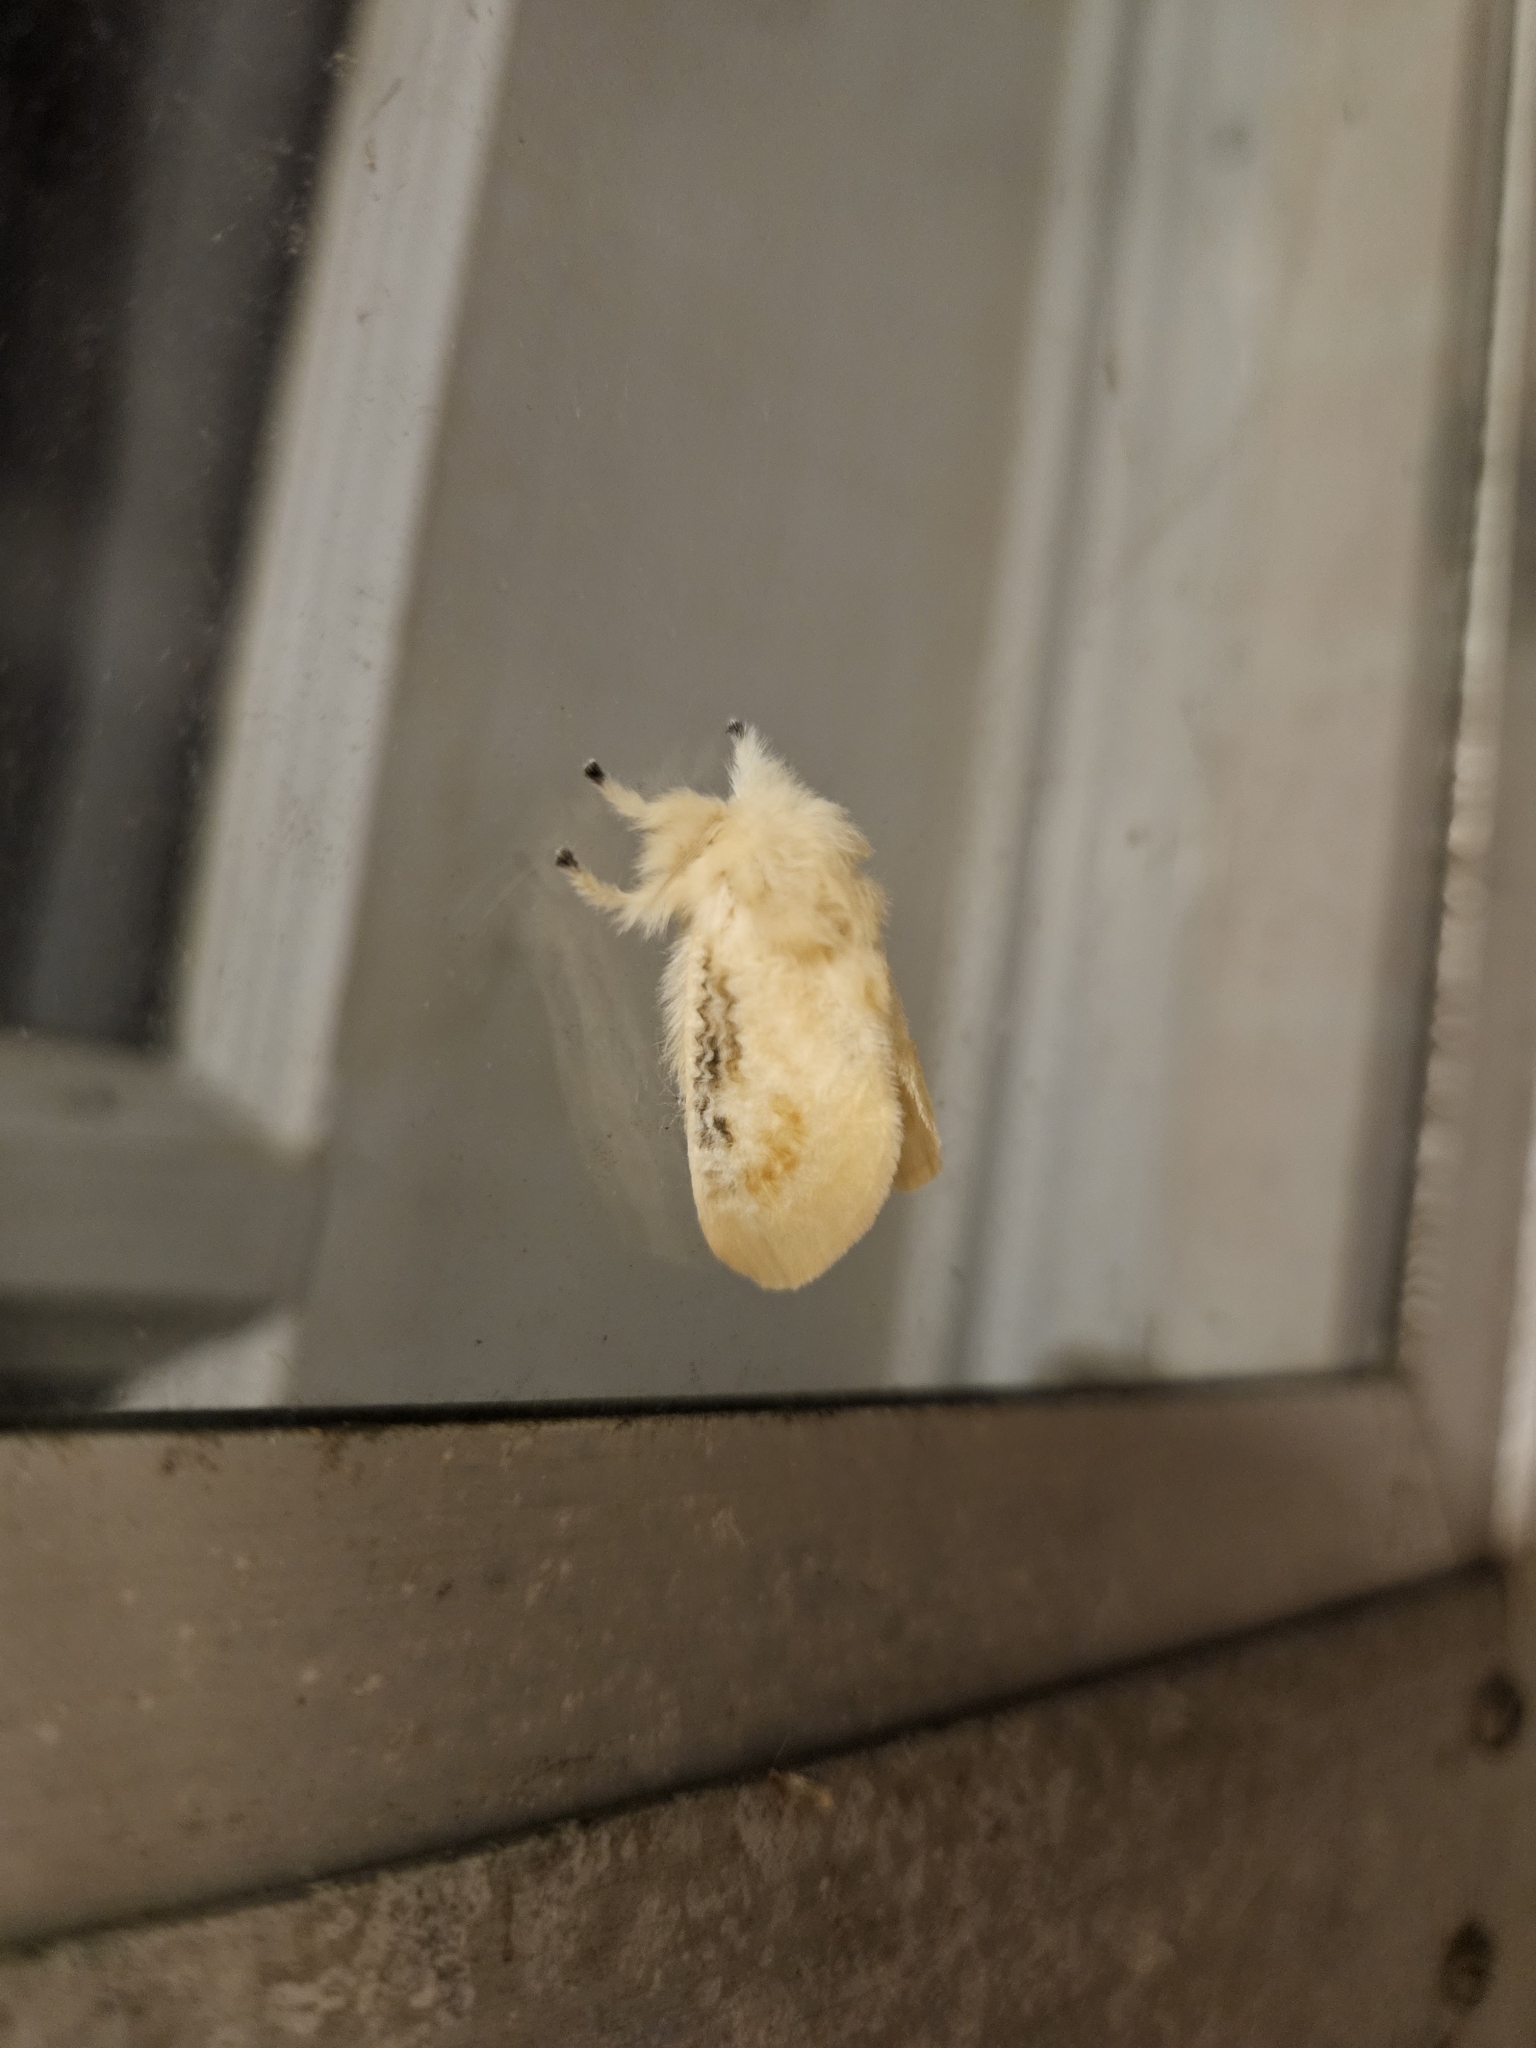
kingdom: Animalia
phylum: Arthropoda
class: Insecta
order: Lepidoptera
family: Megalopygidae
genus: Megalopyge
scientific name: Megalopyge crispata
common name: Black-waved flannel moth
